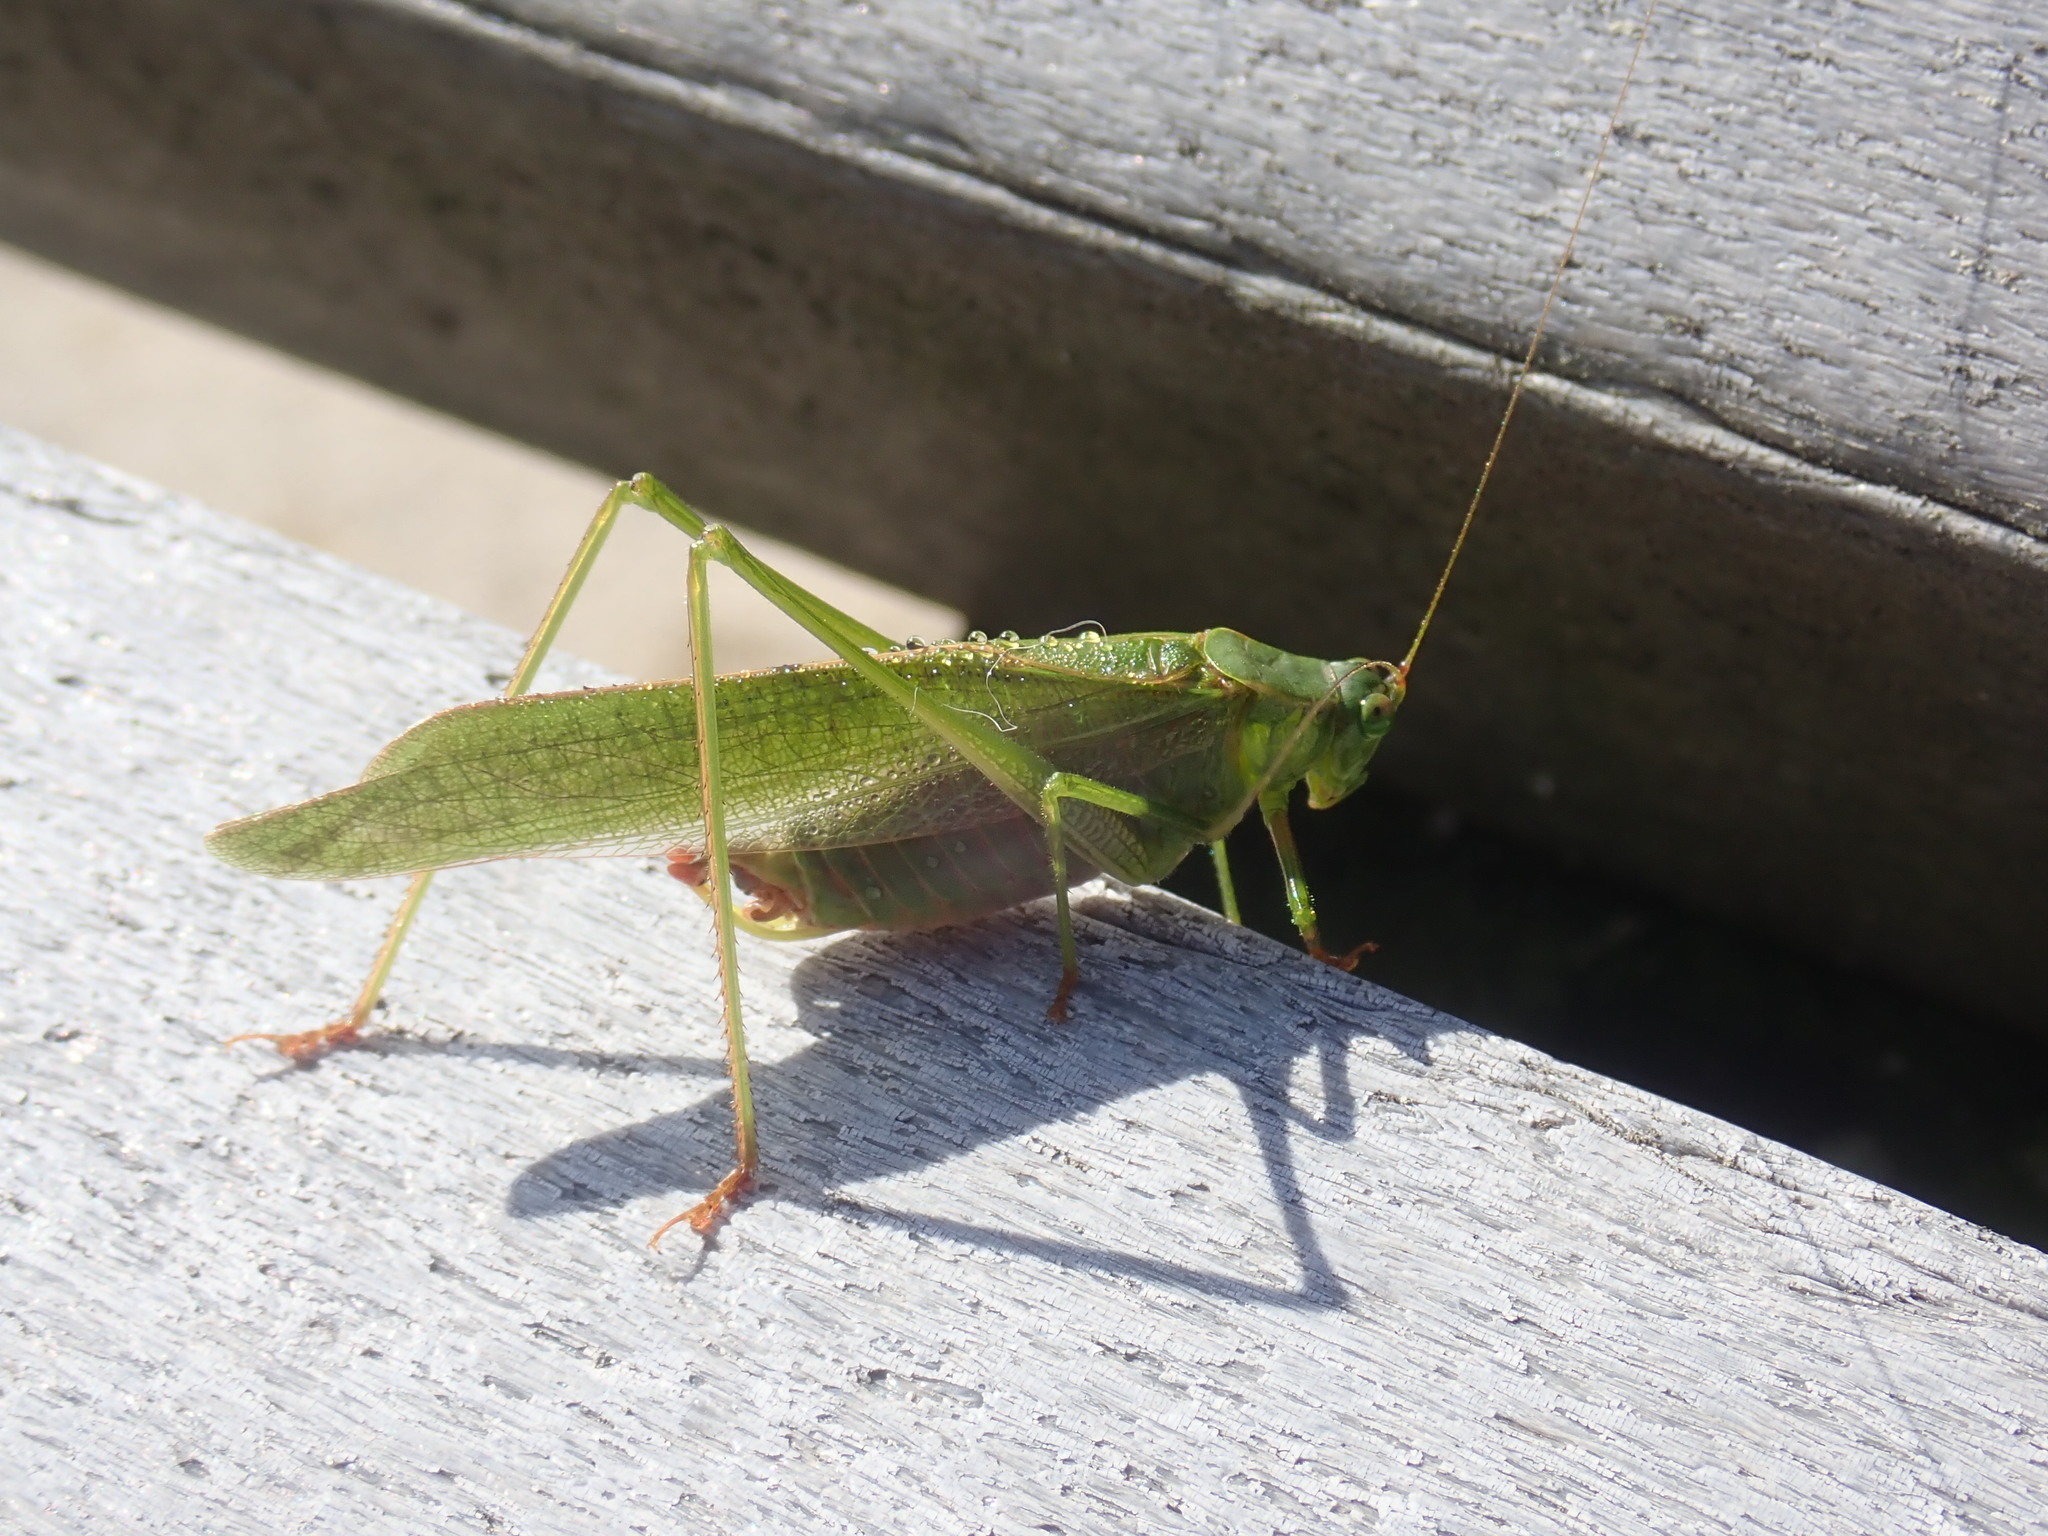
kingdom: Animalia
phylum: Arthropoda
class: Insecta
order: Orthoptera
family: Tettigoniidae
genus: Scudderia
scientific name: Scudderia furcata
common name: Fork-tailed bush katydid
